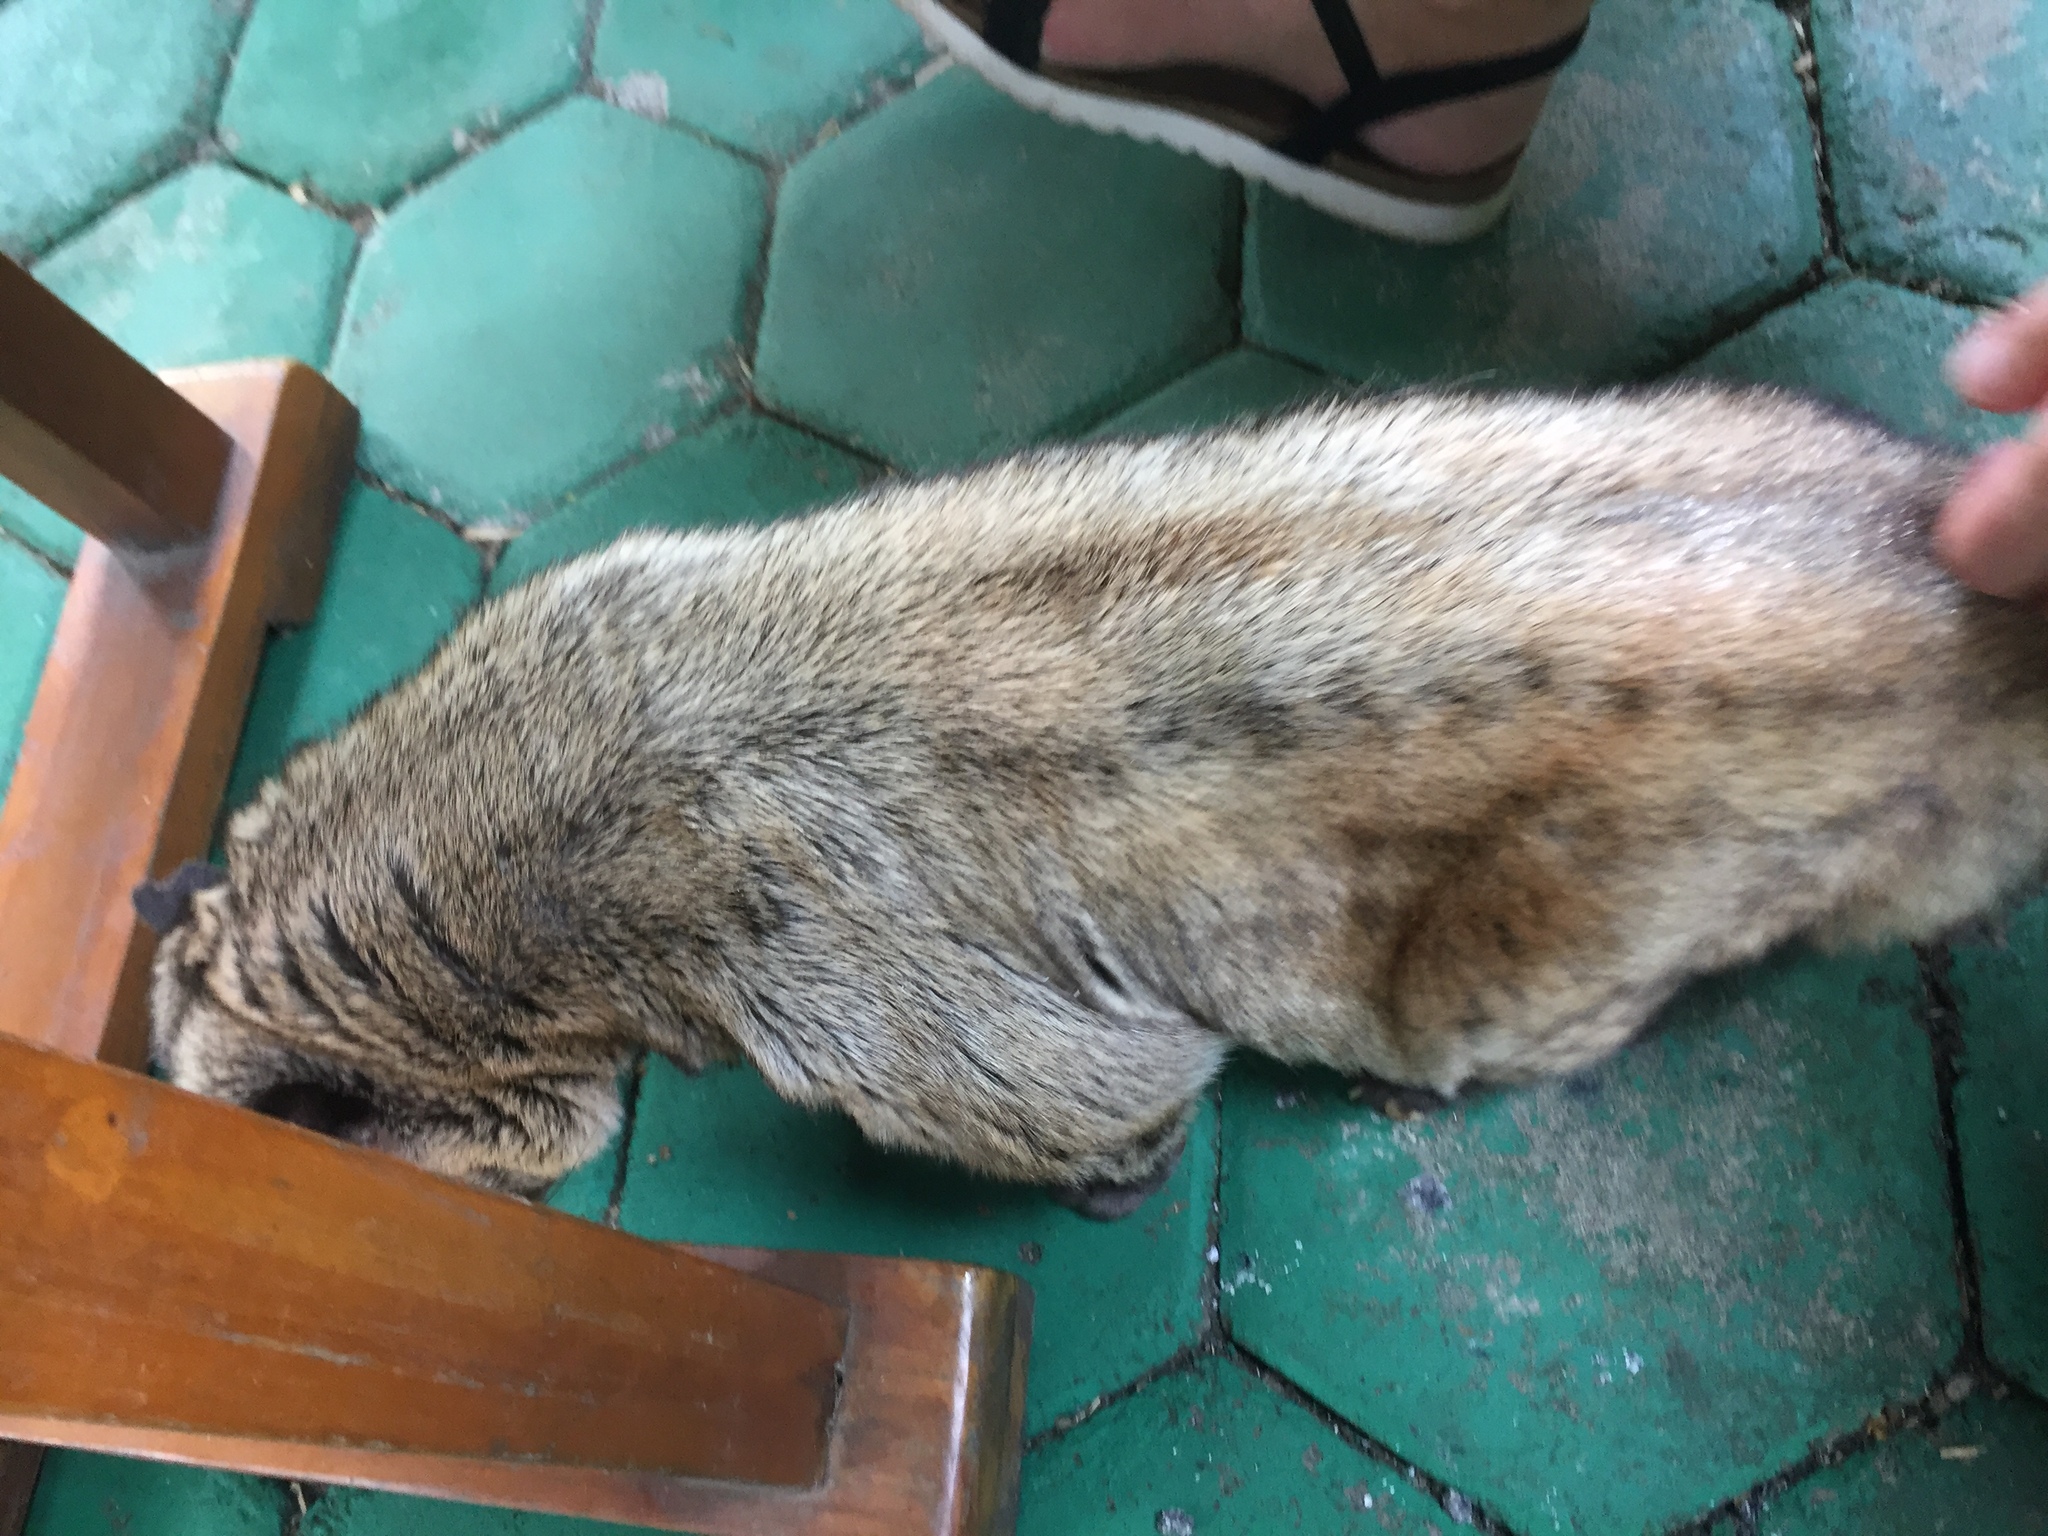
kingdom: Animalia
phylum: Chordata
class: Mammalia
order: Carnivora
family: Viverridae
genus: Paradoxurus
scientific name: Paradoxurus hermaphroditus
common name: Common palm civet
